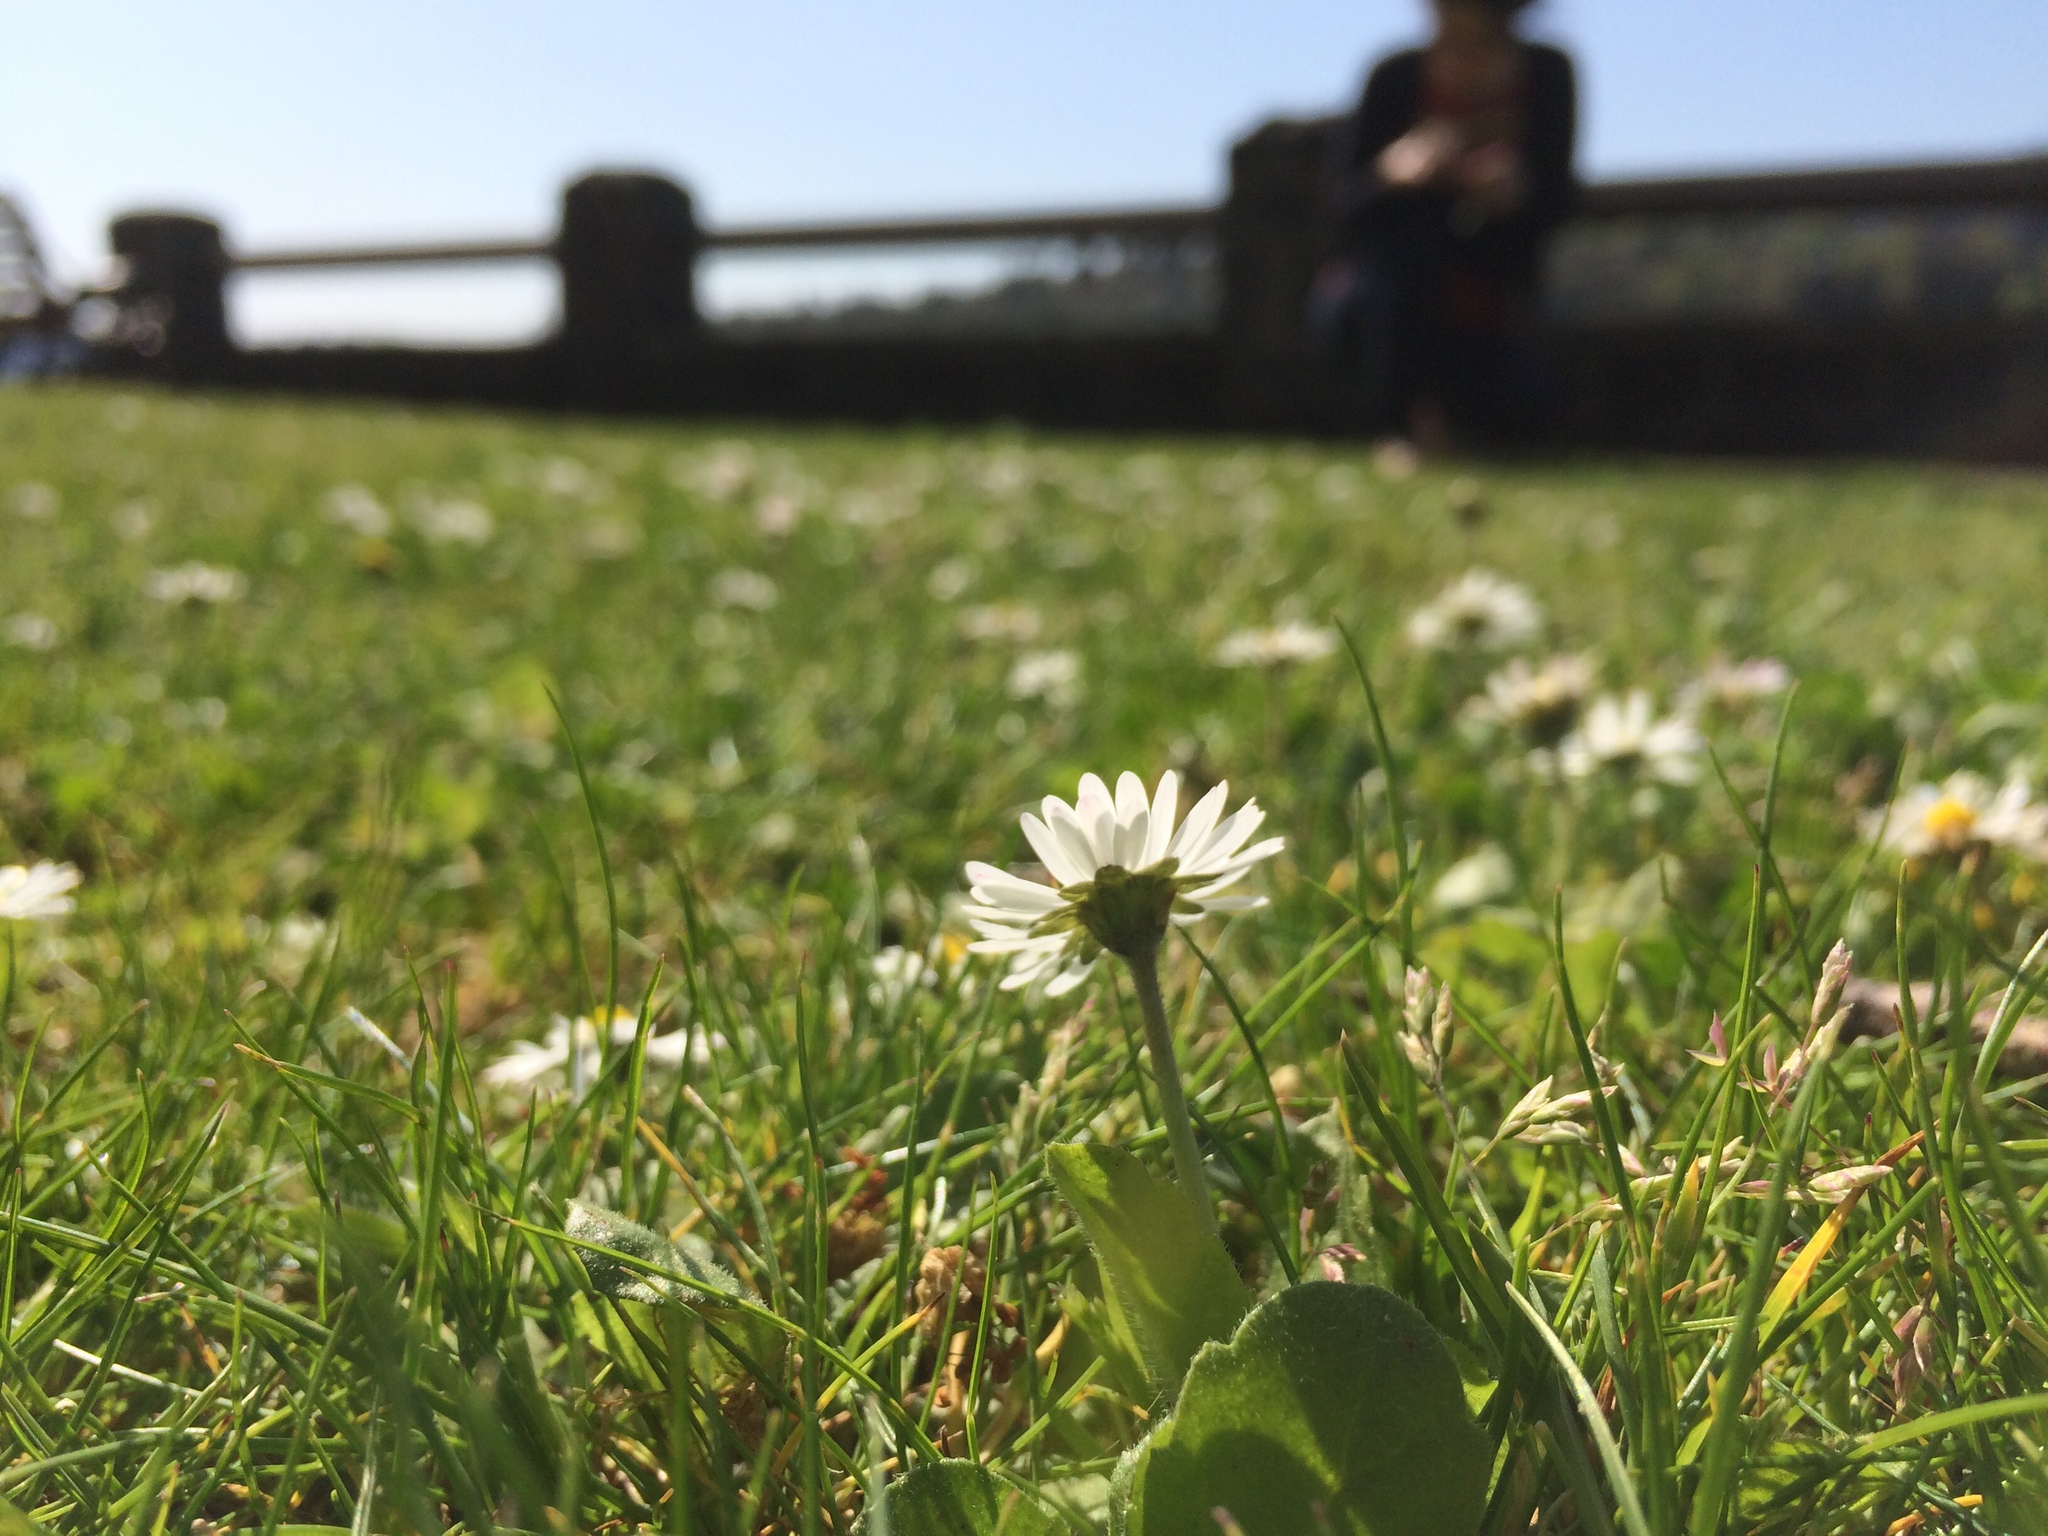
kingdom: Plantae
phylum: Tracheophyta
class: Magnoliopsida
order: Asterales
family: Asteraceae
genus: Bellis
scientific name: Bellis perennis
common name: Lawndaisy
